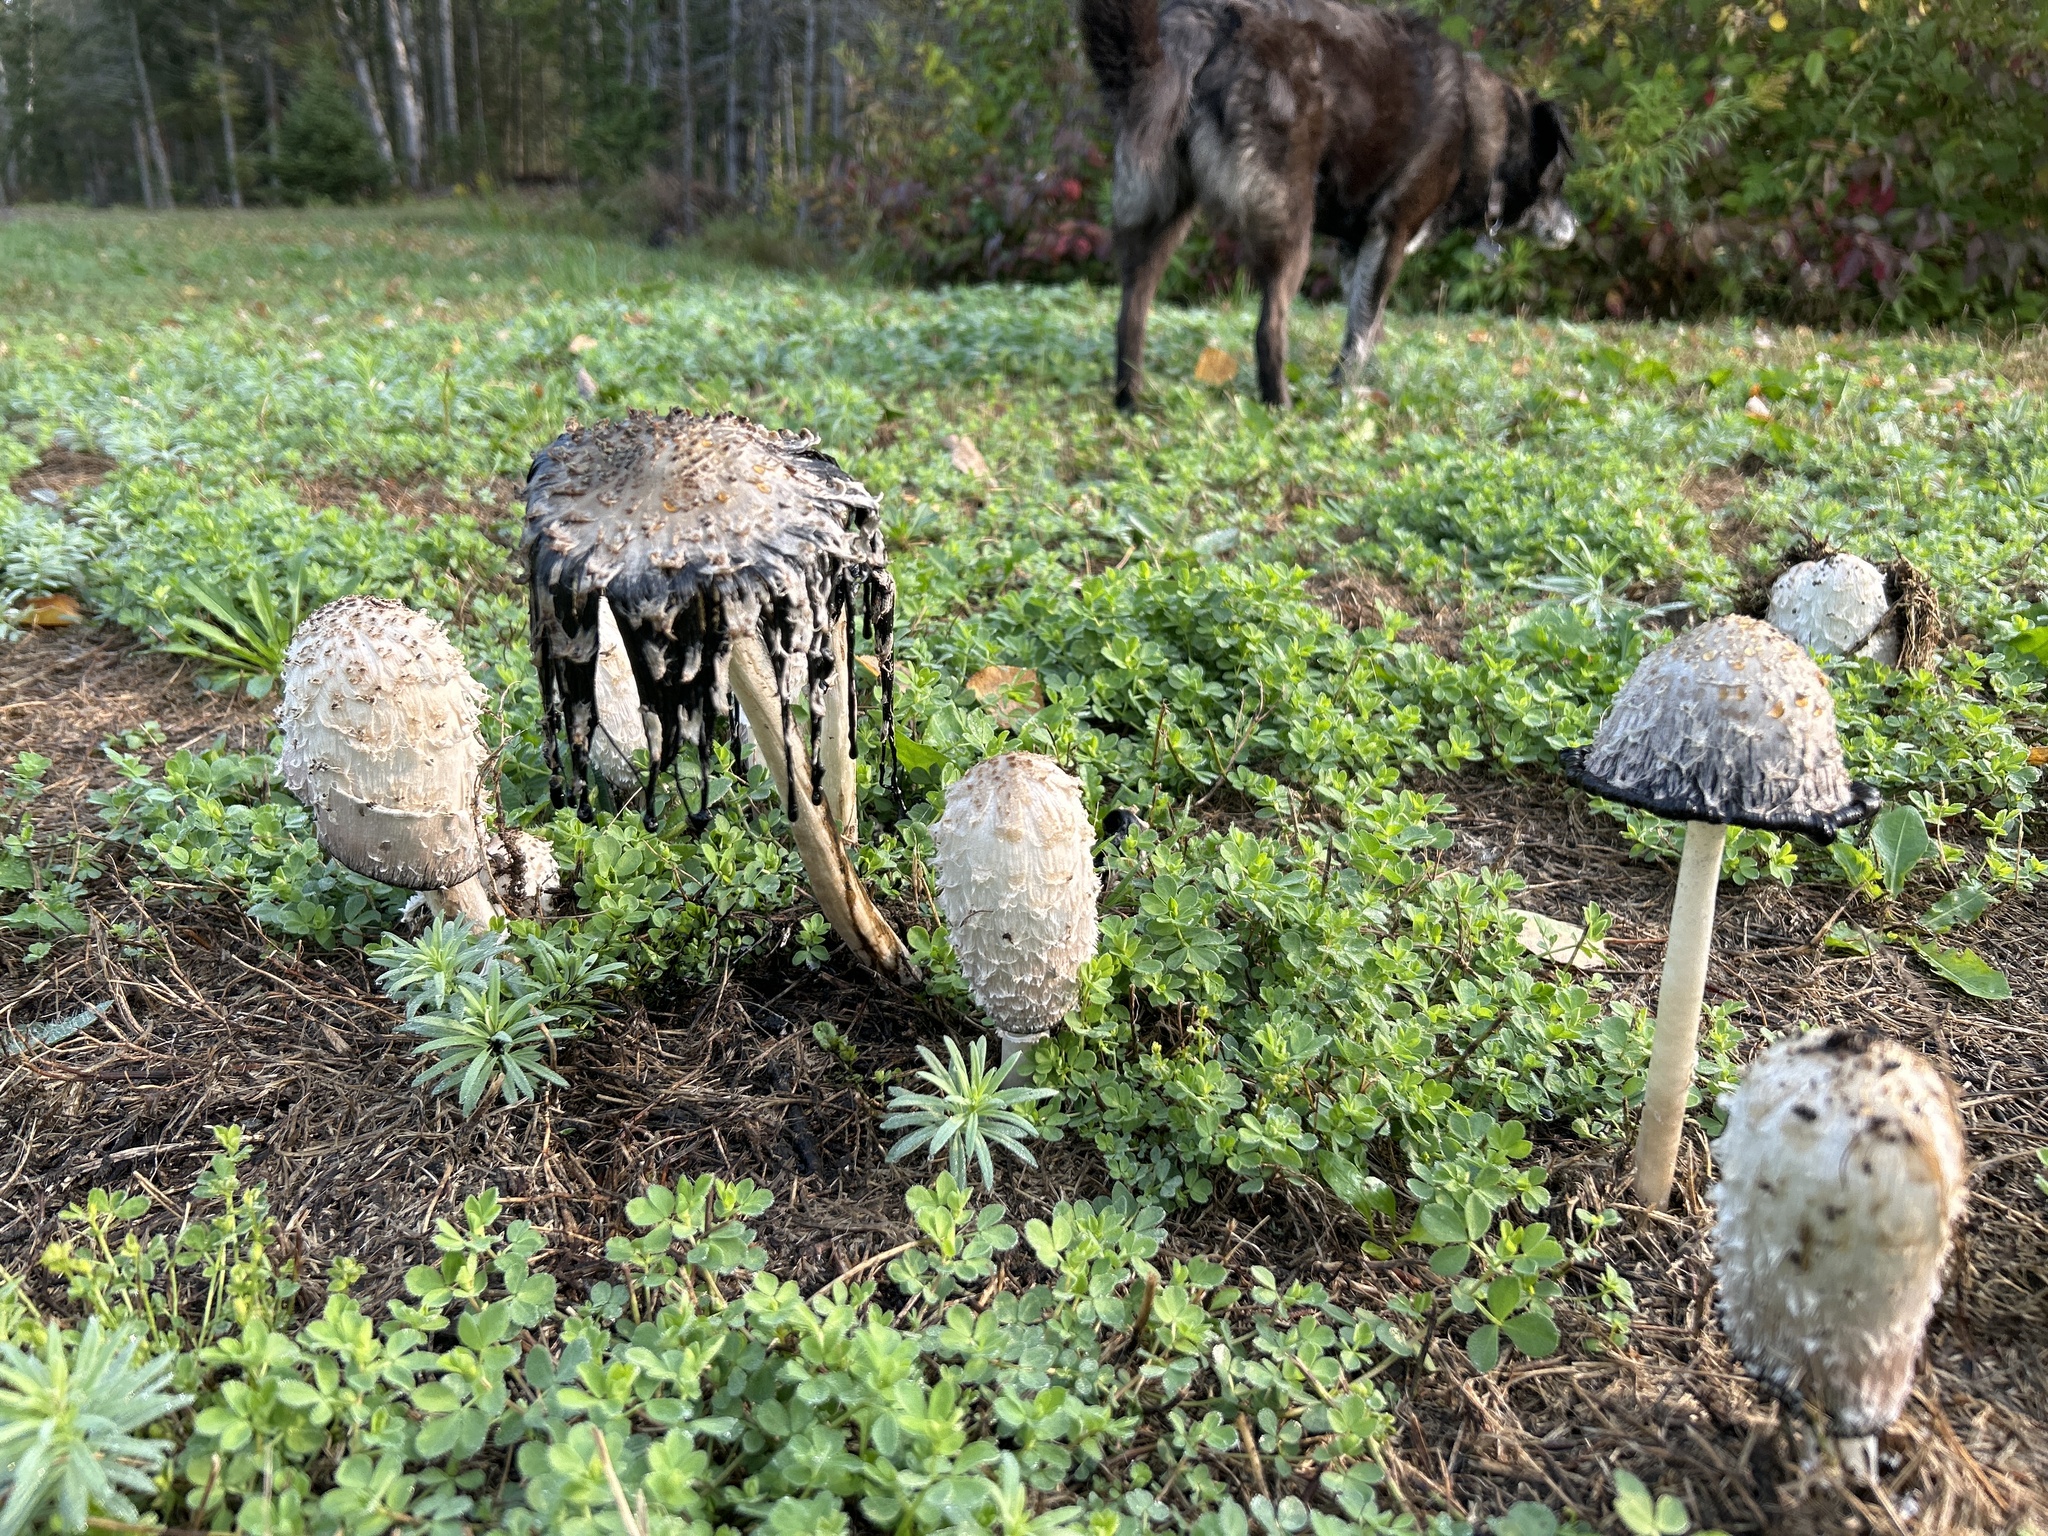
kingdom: Fungi
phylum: Basidiomycota
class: Agaricomycetes
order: Agaricales
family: Agaricaceae
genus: Coprinus
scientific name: Coprinus comatus
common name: Lawyer's wig
